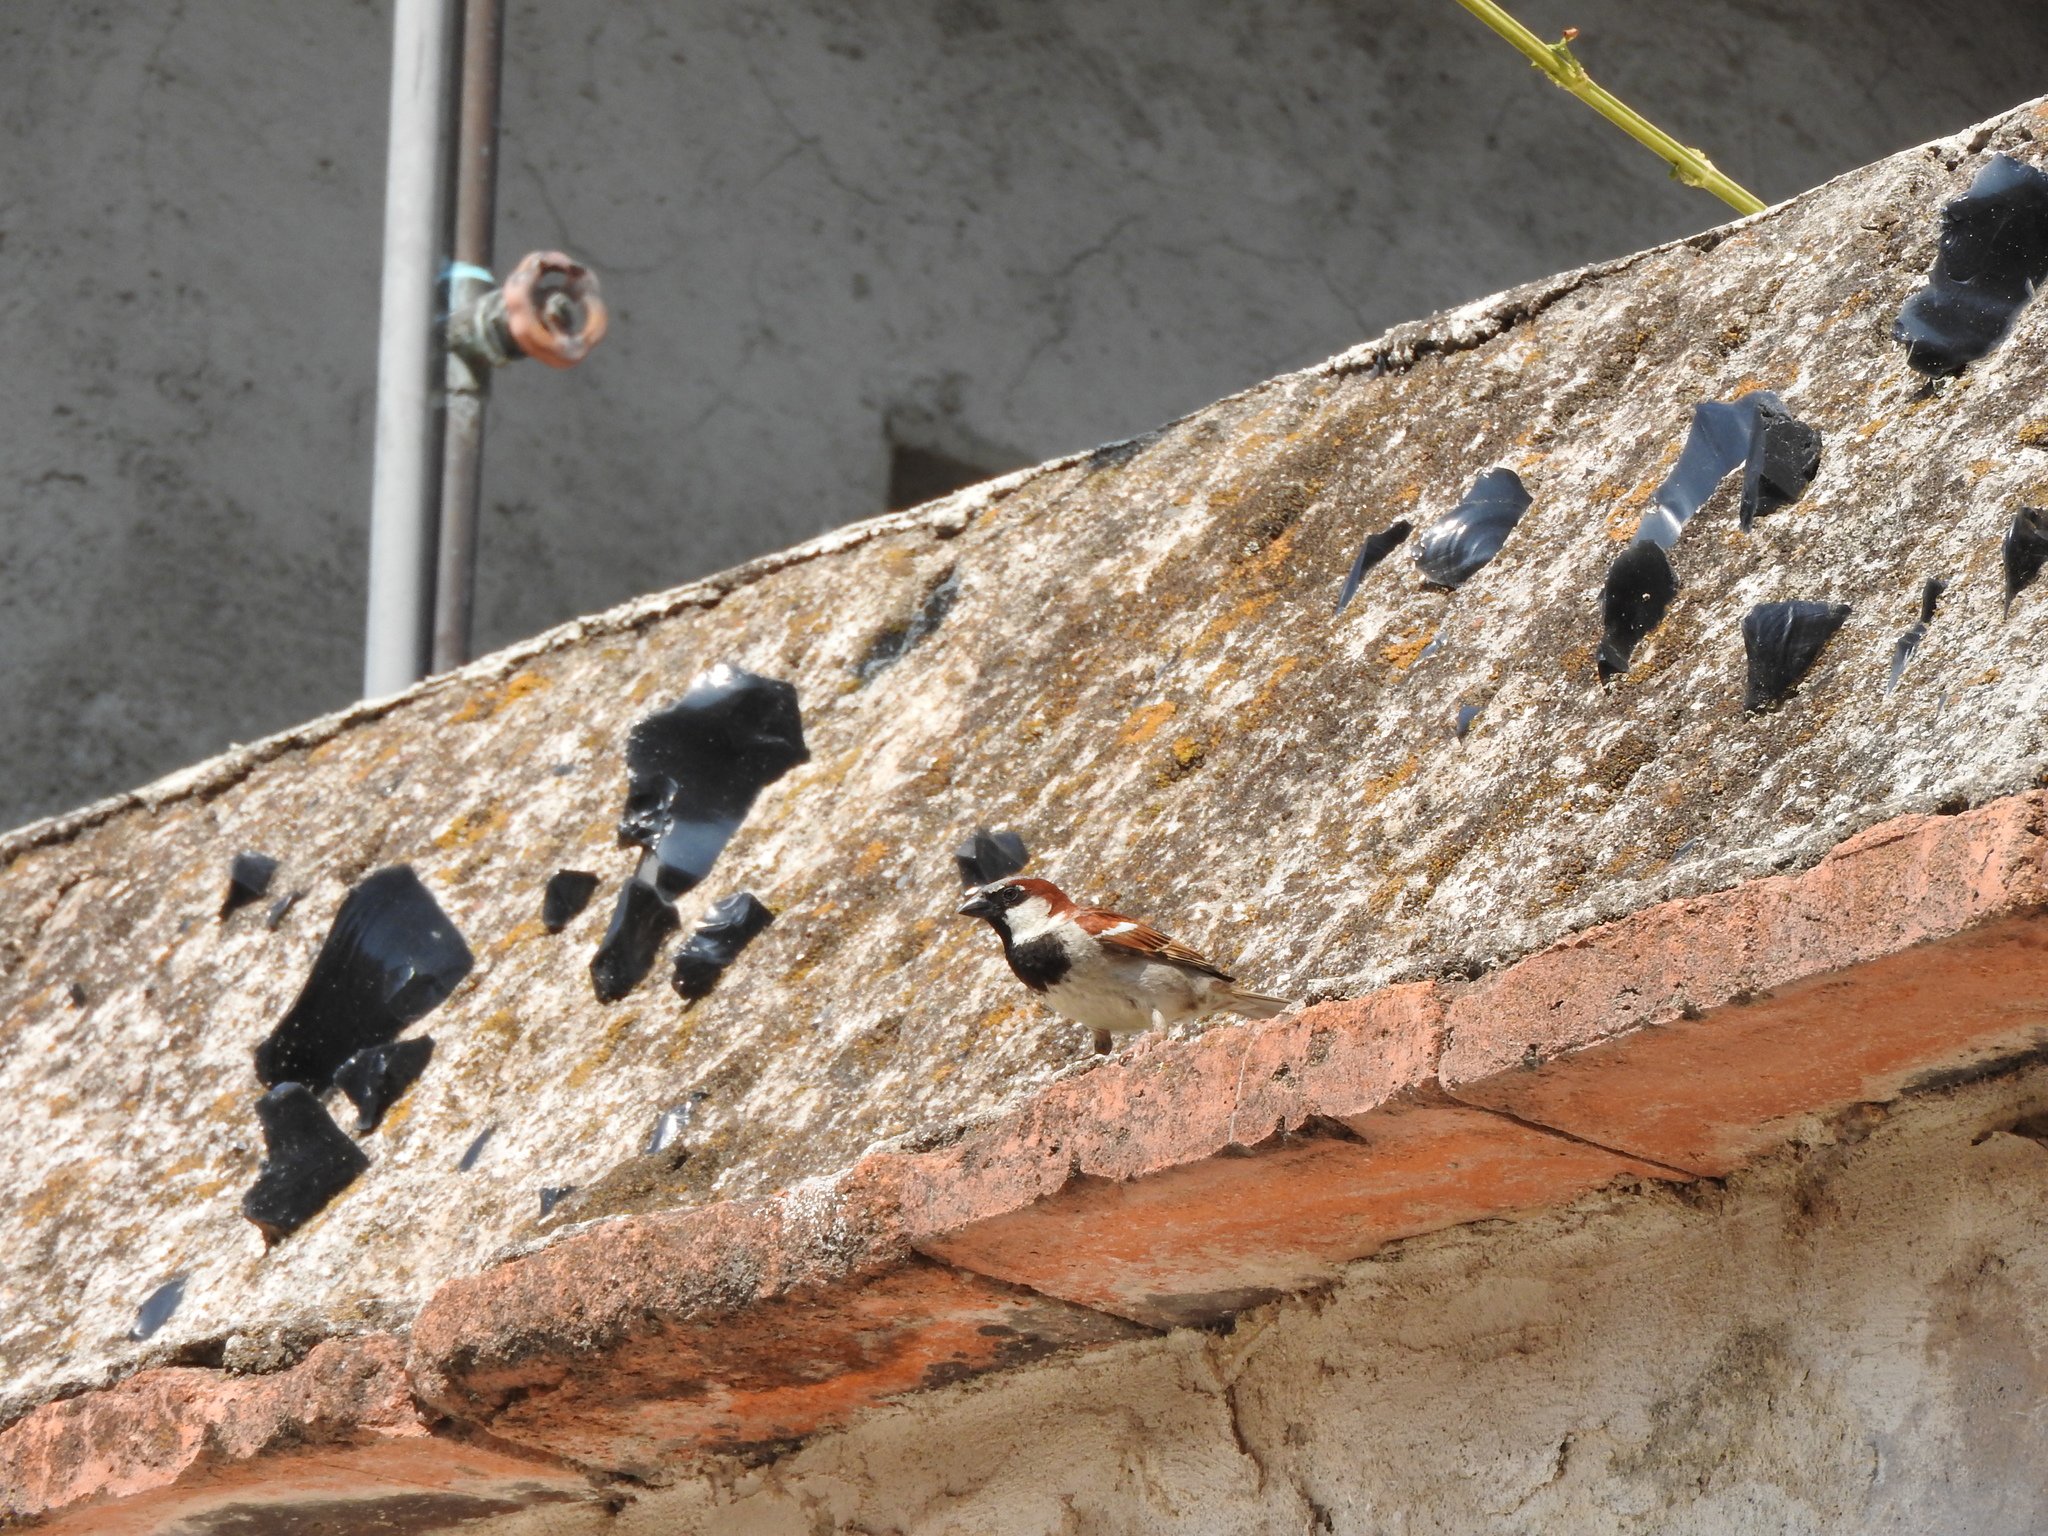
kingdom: Animalia
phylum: Chordata
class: Aves
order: Passeriformes
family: Passeridae
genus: Passer
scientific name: Passer domesticus
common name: House sparrow
